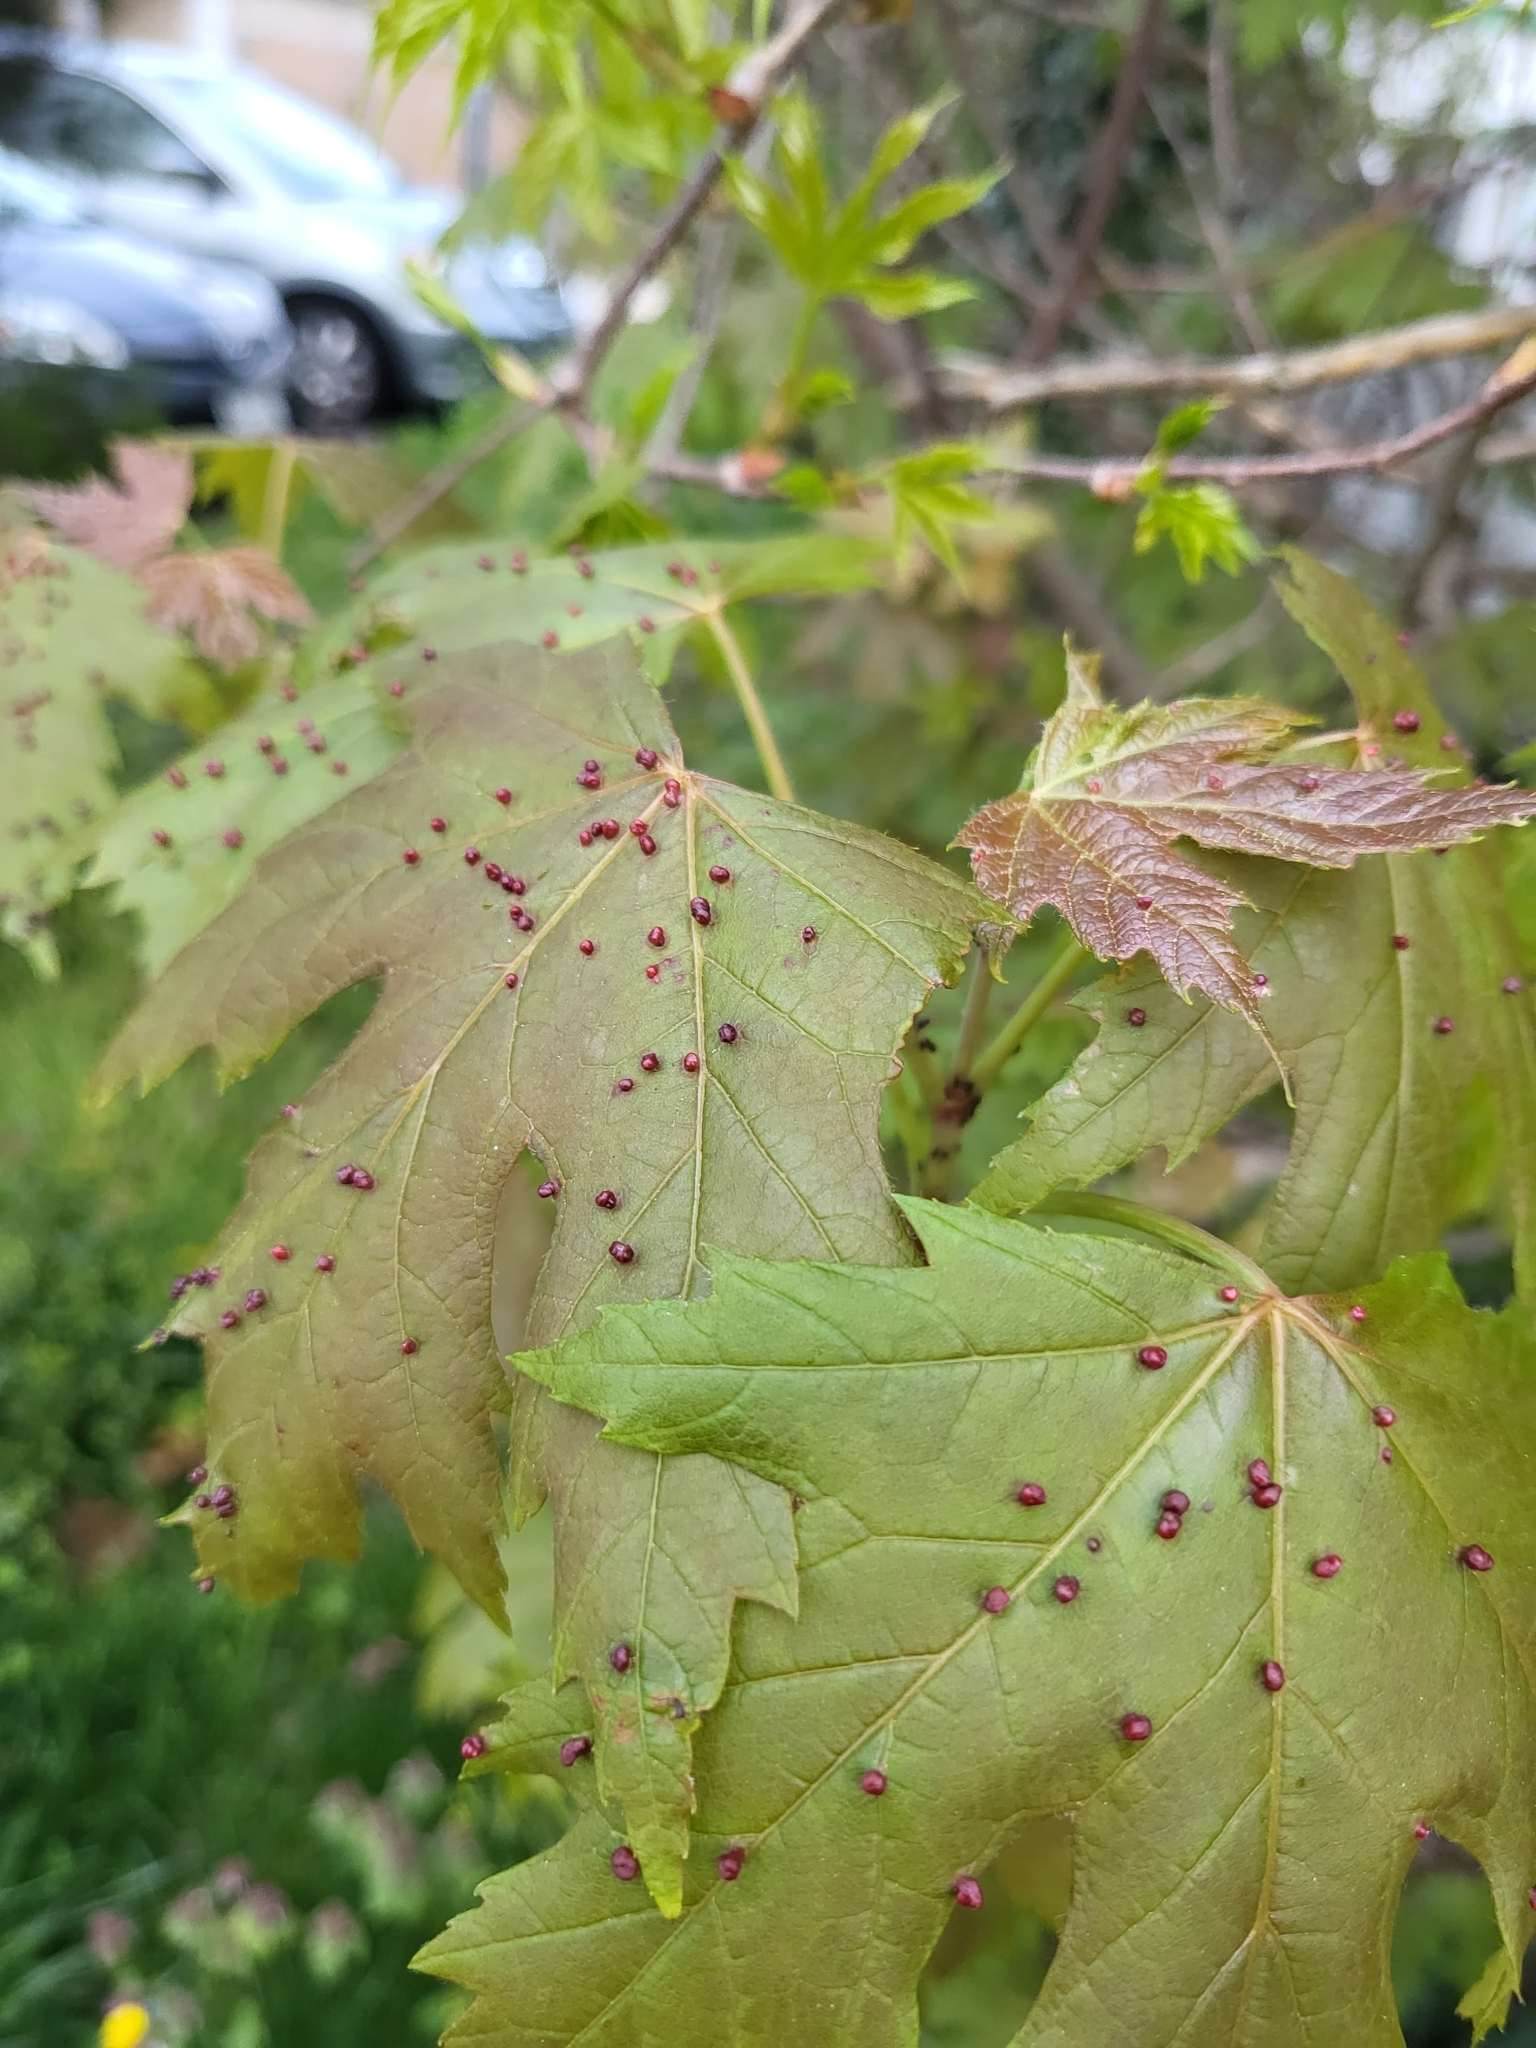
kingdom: Animalia
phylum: Arthropoda
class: Arachnida
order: Trombidiformes
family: Eriophyidae
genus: Vasates
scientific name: Vasates quadripedes
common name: Maple bladder gall mite
